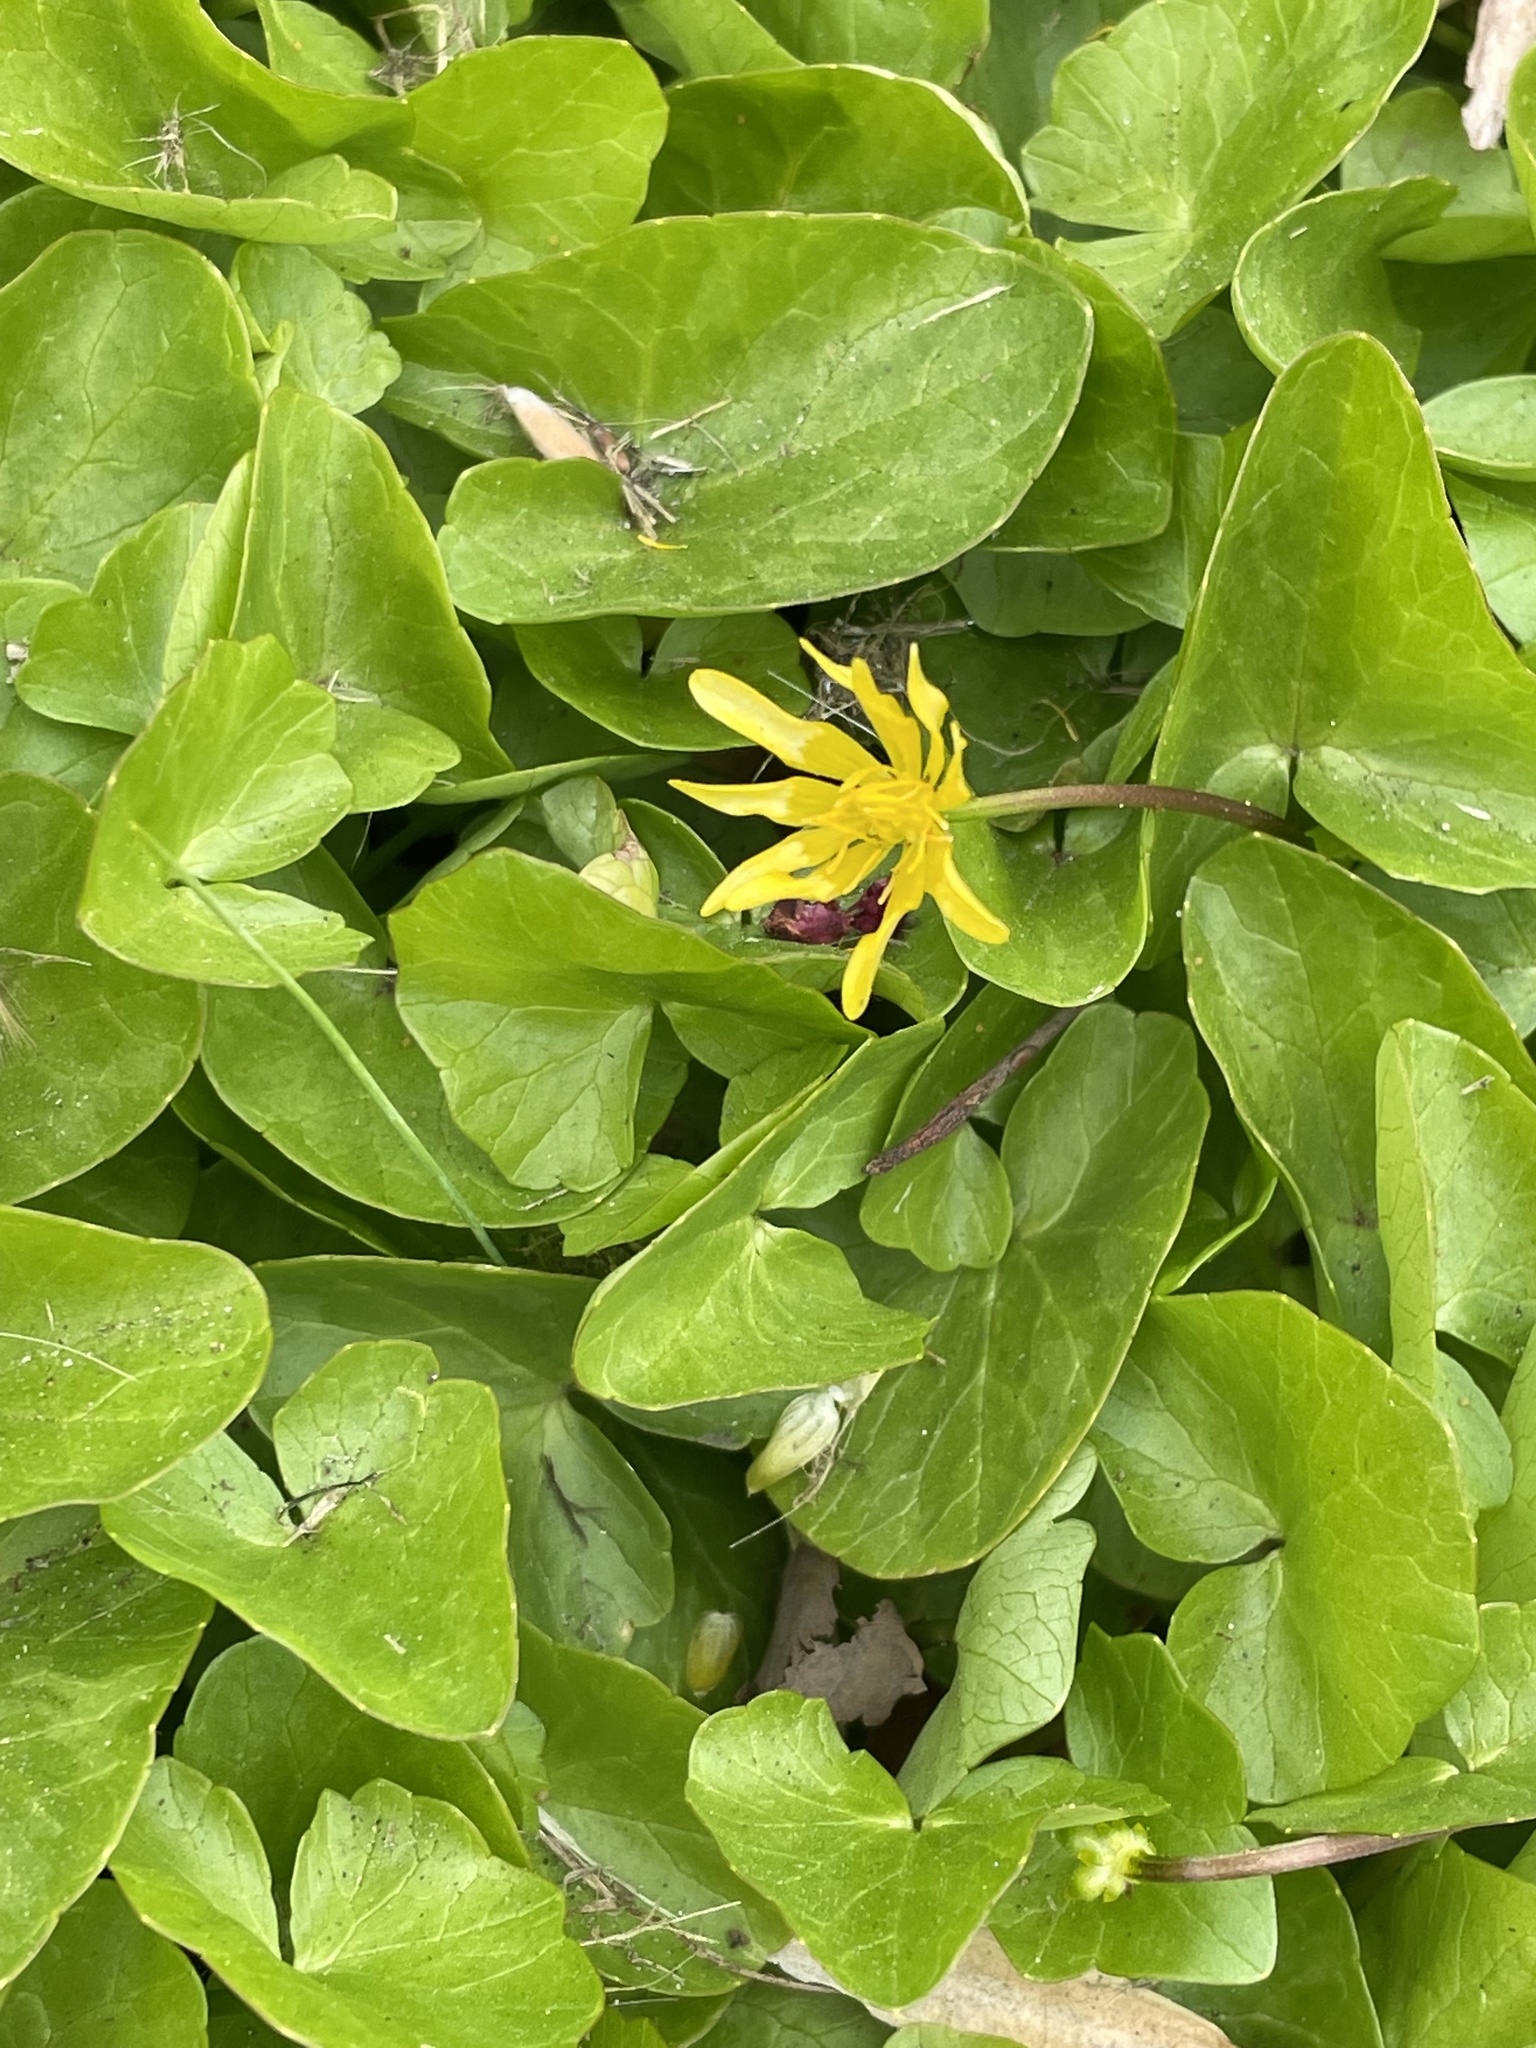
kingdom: Plantae
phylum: Tracheophyta
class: Magnoliopsida
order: Ranunculales
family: Ranunculaceae
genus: Ficaria
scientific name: Ficaria verna
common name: Lesser celandine
